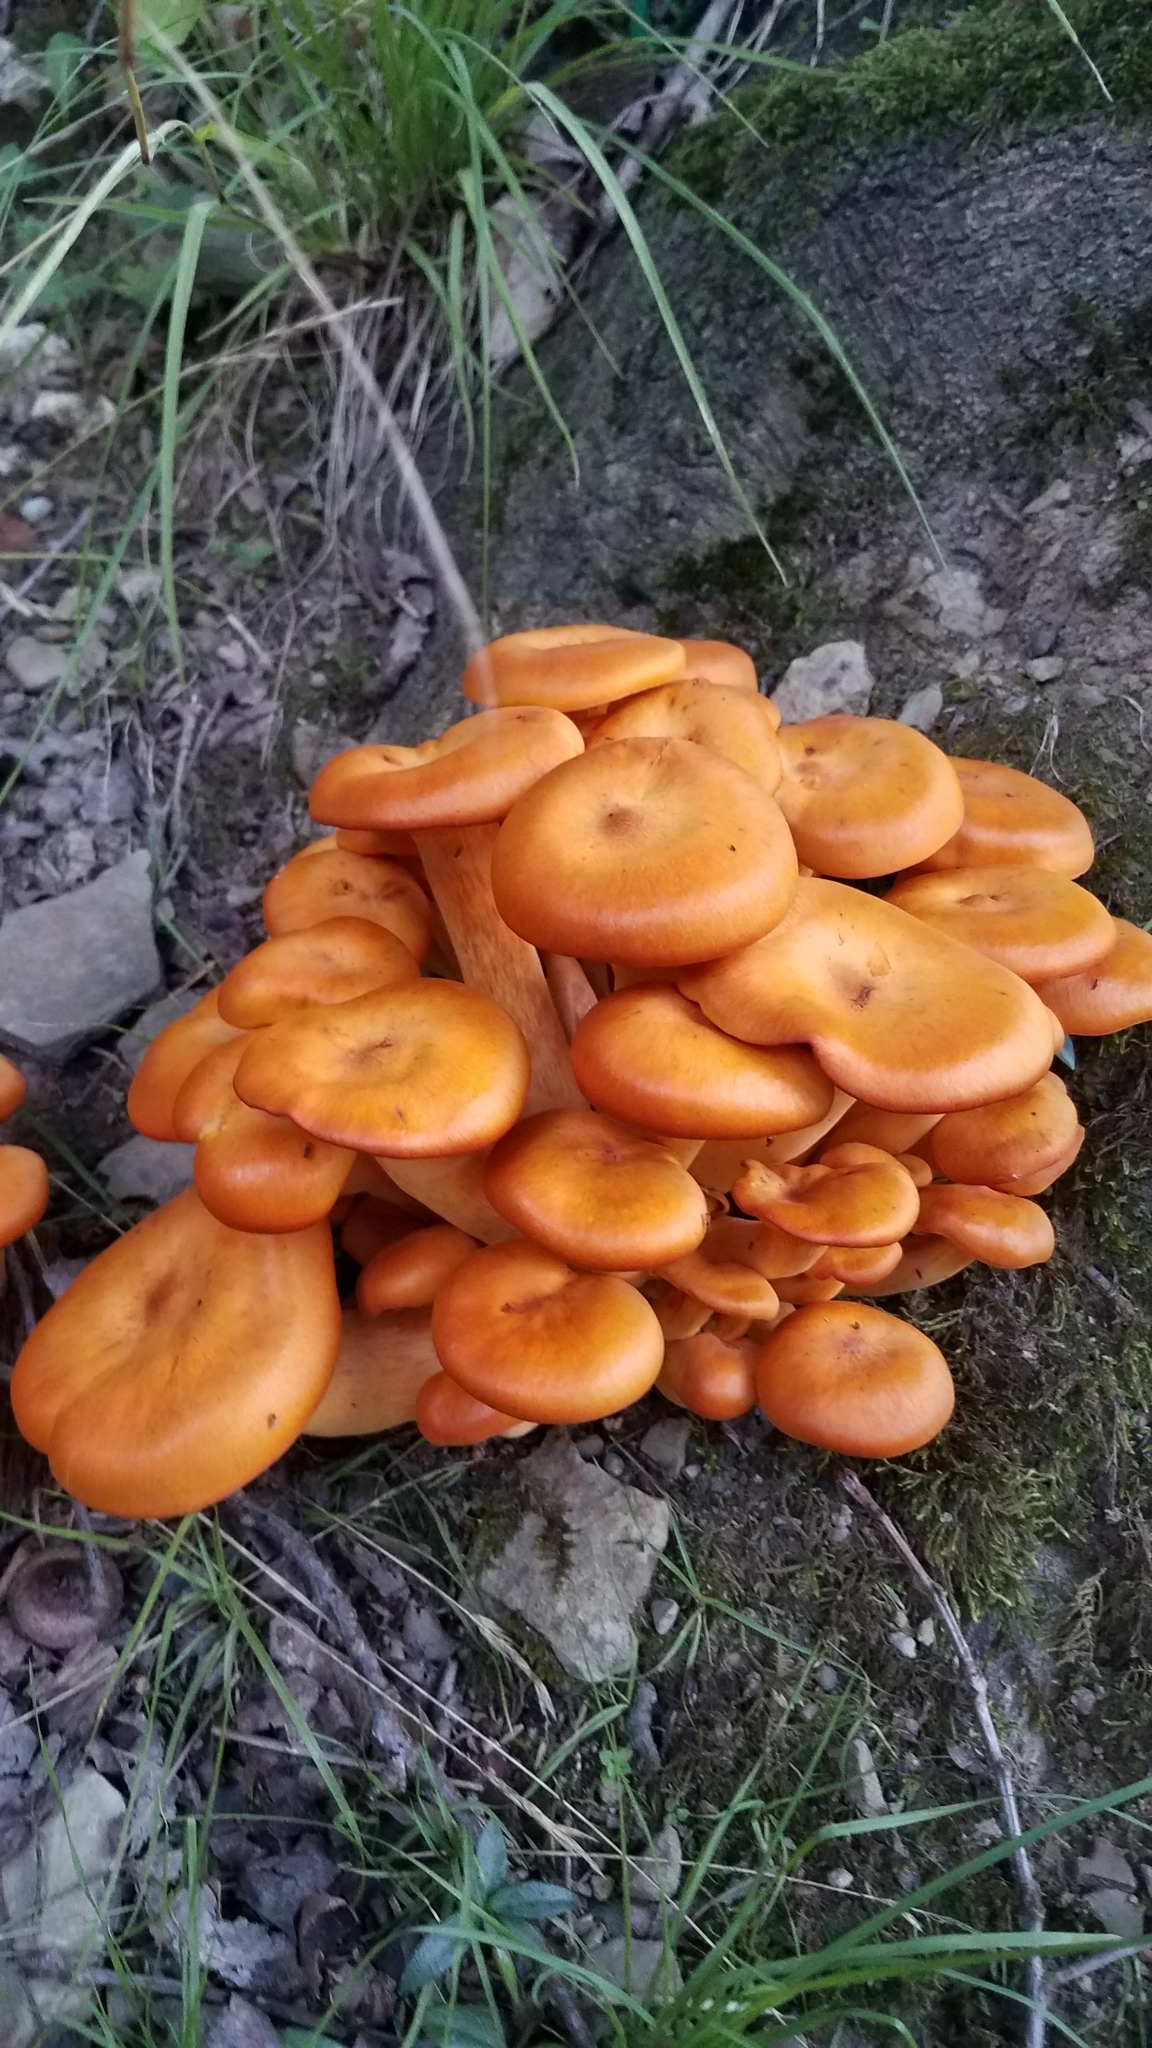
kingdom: Fungi
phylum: Basidiomycota
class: Agaricomycetes
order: Agaricales
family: Omphalotaceae
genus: Omphalotus
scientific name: Omphalotus illudens
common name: Jack o lantern
